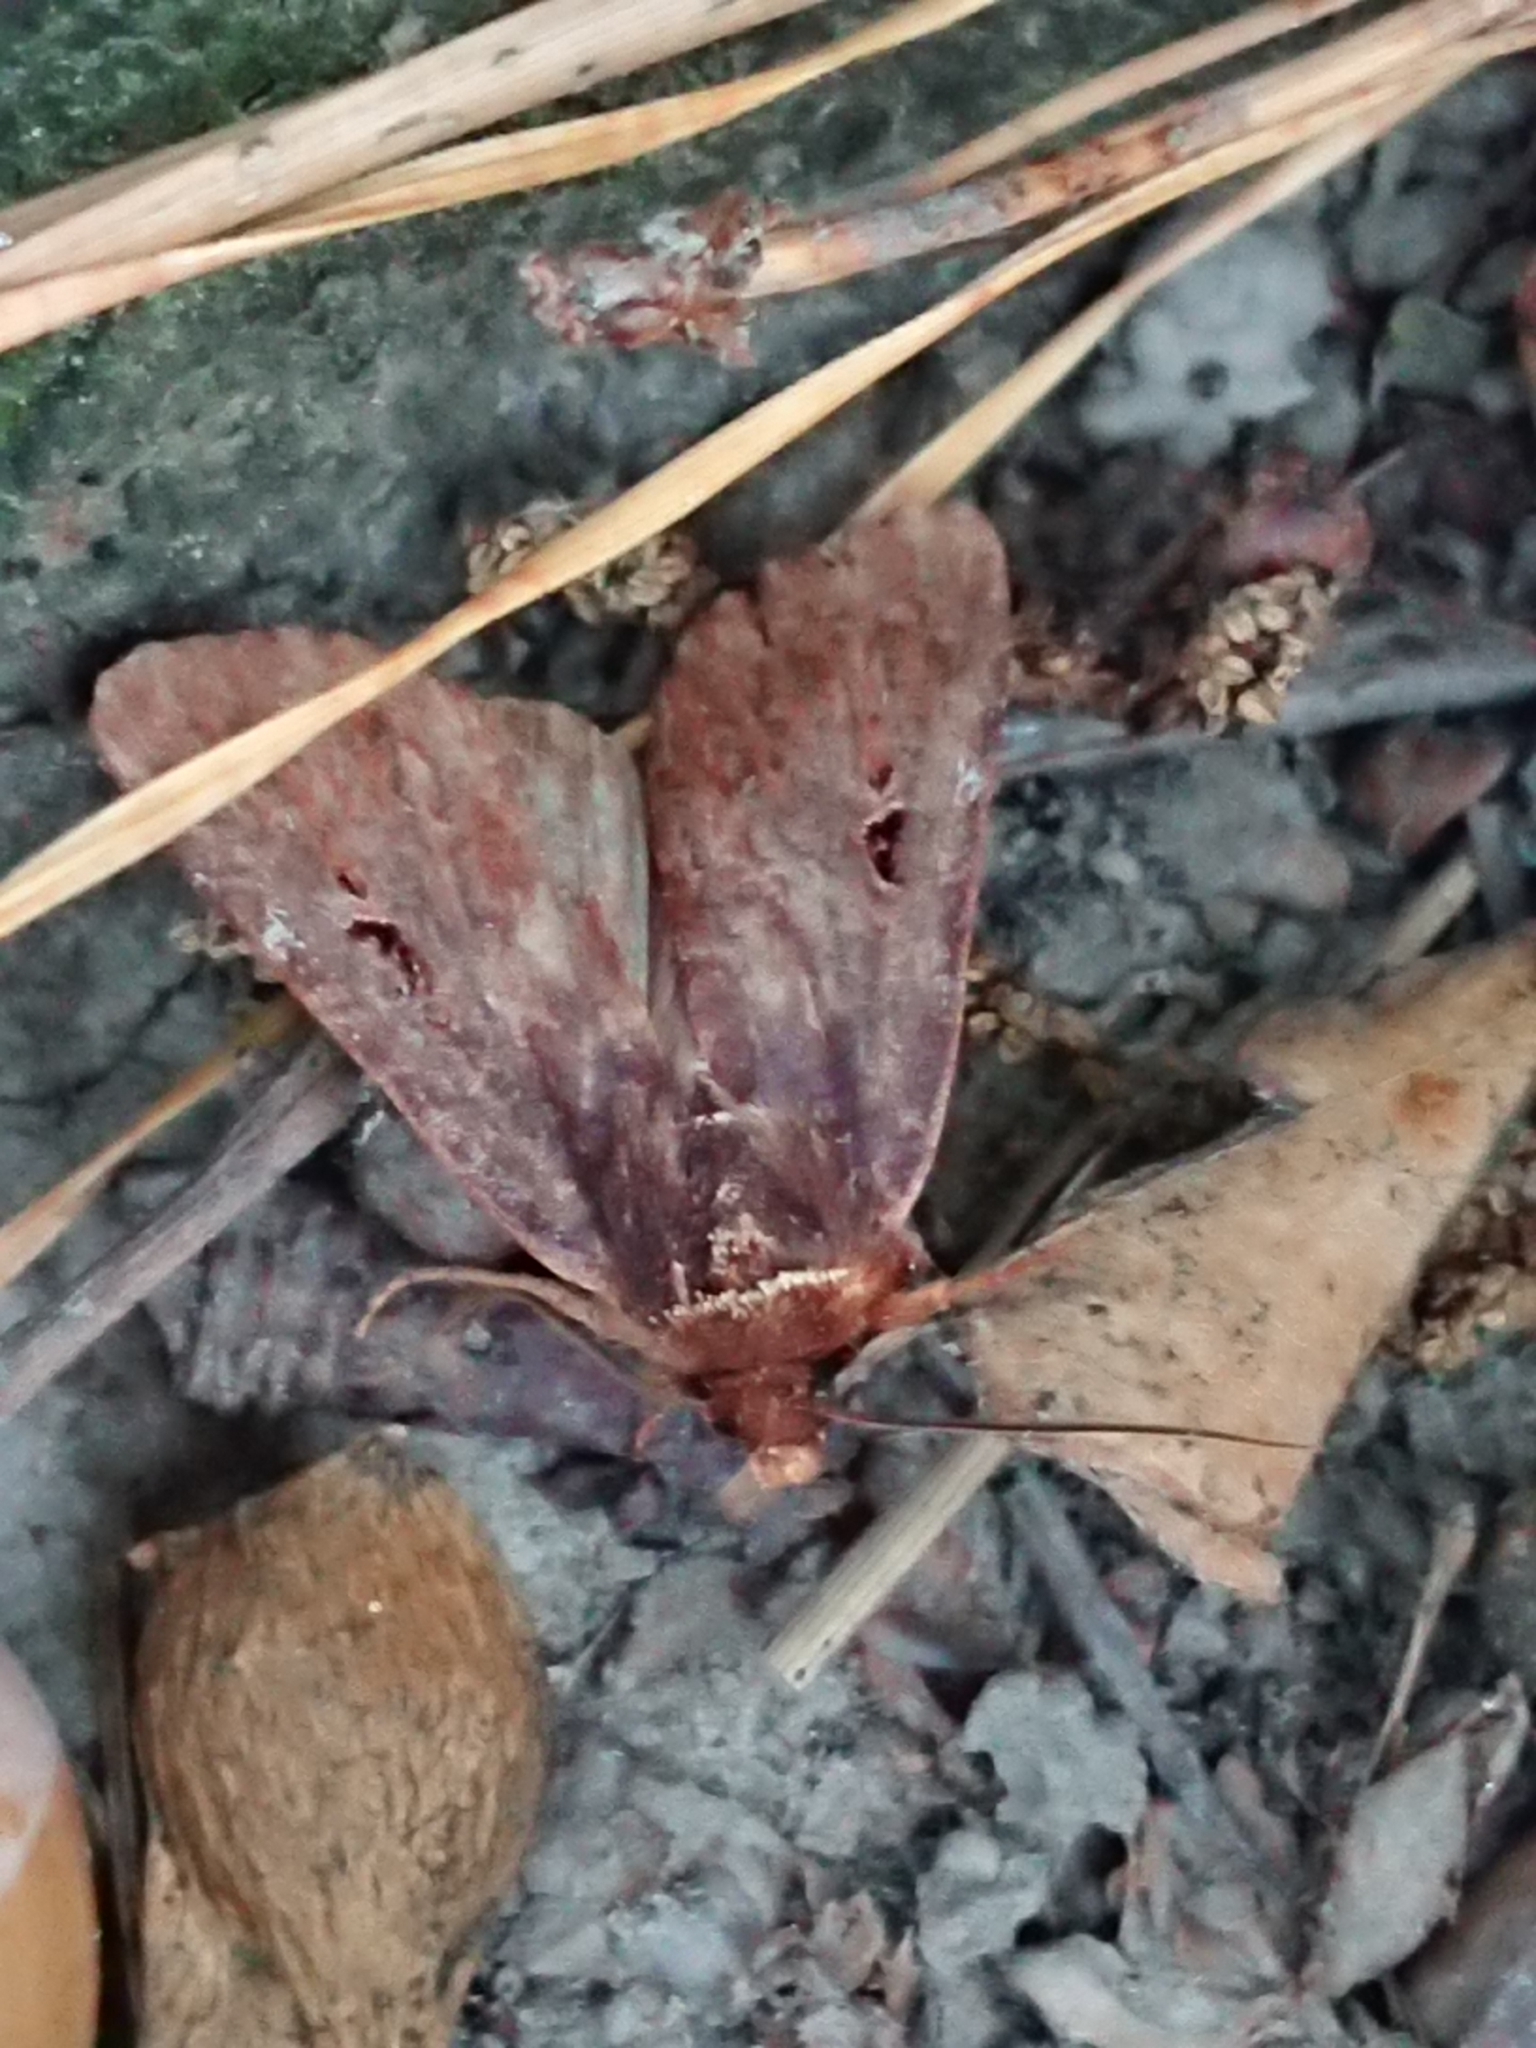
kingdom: Animalia
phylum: Arthropoda
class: Insecta
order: Lepidoptera
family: Noctuidae
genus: Austramathes
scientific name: Austramathes purpurea
